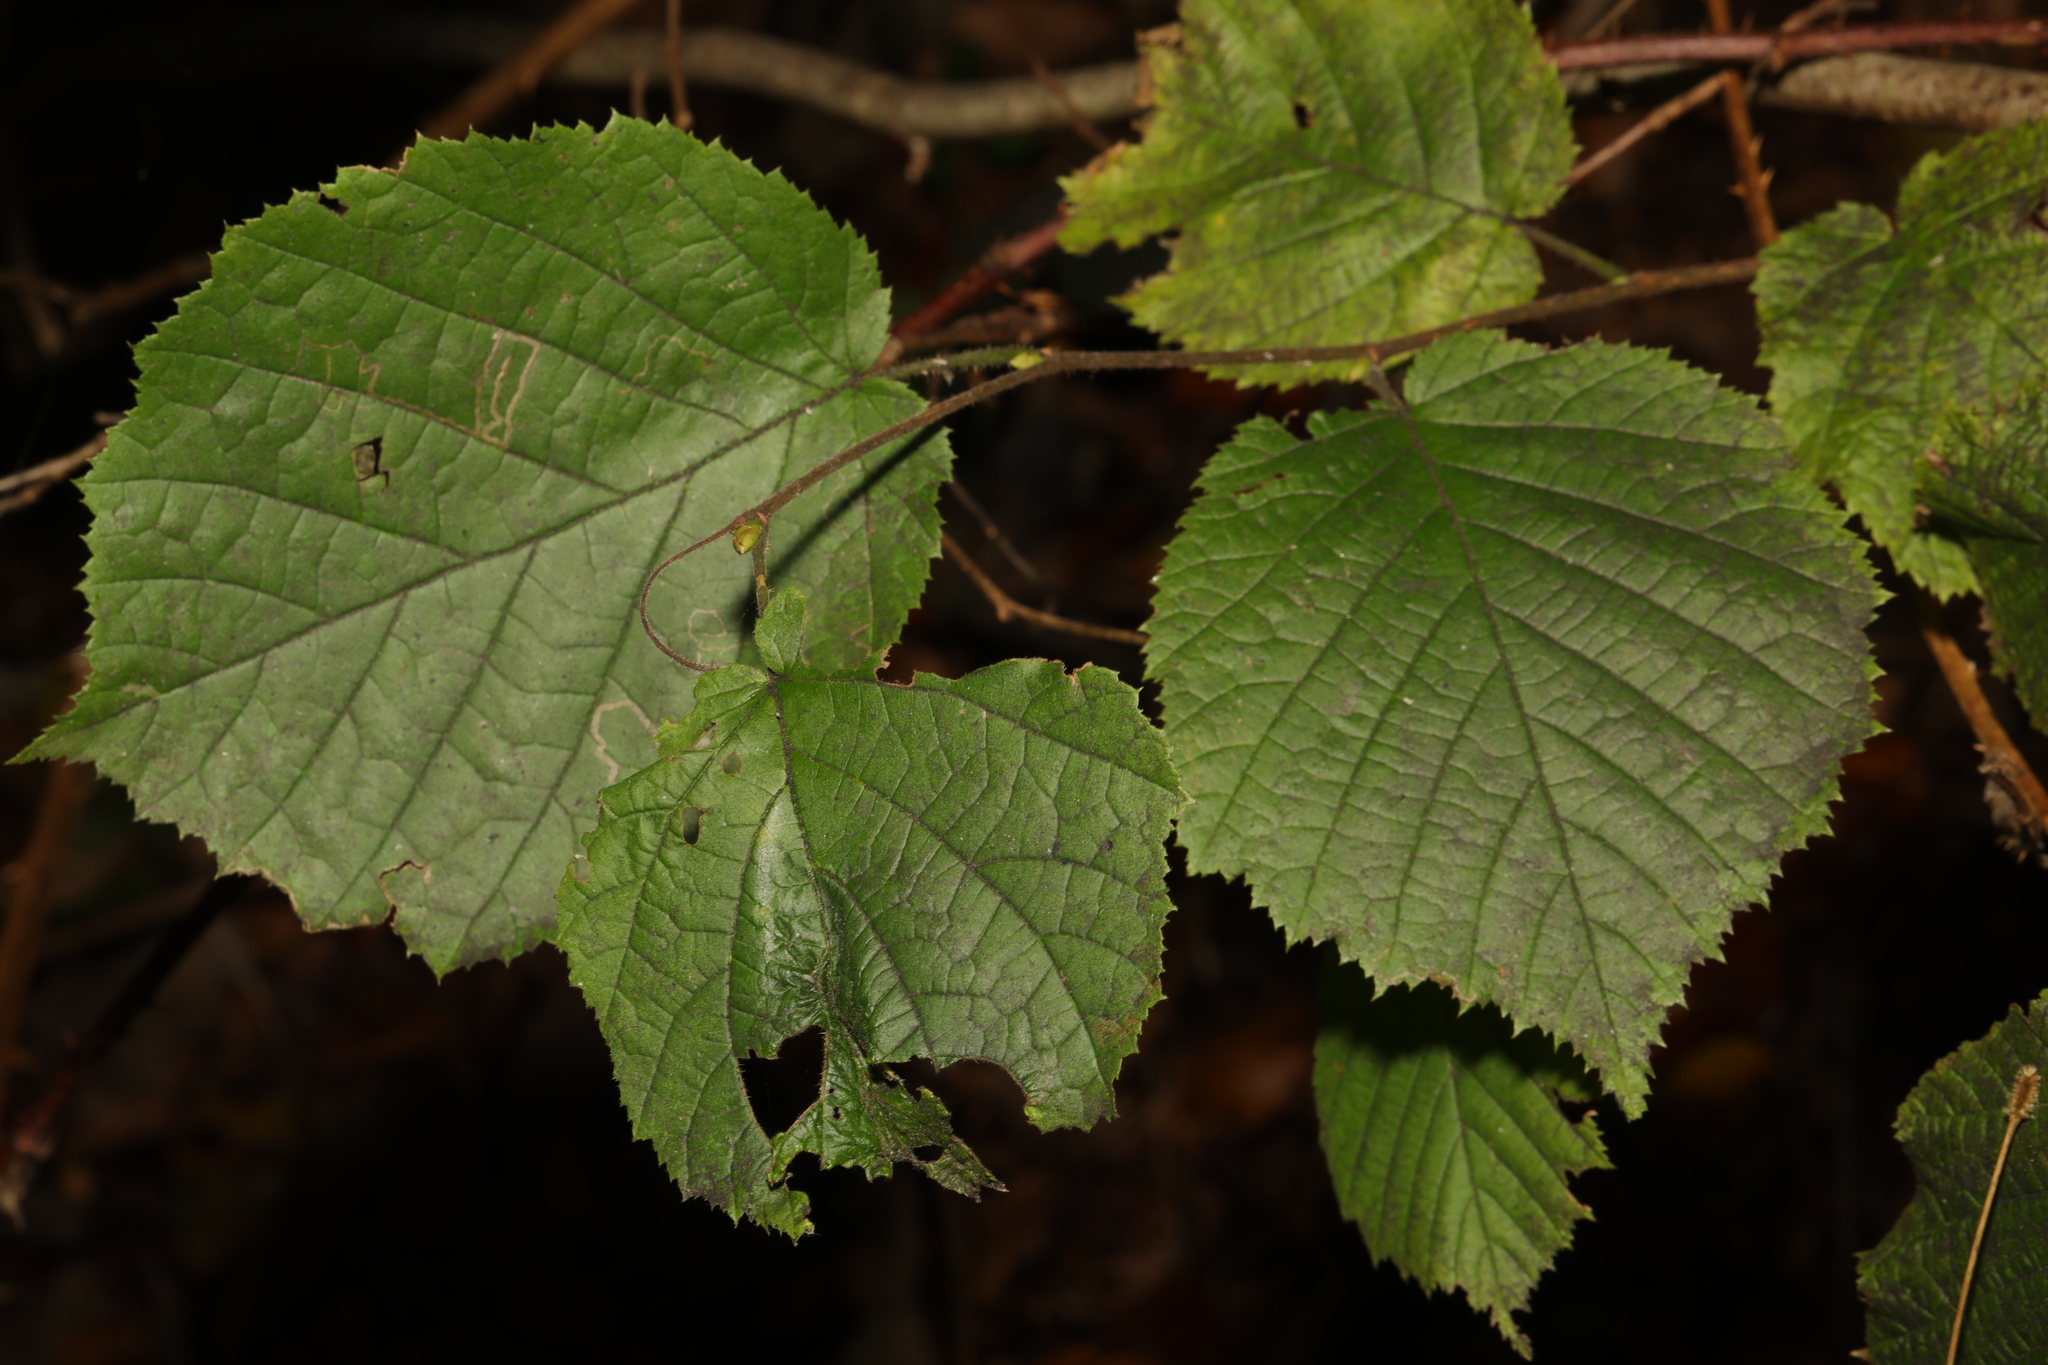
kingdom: Plantae
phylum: Tracheophyta
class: Magnoliopsida
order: Fagales
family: Betulaceae
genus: Corylus
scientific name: Corylus avellana
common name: European hazel
